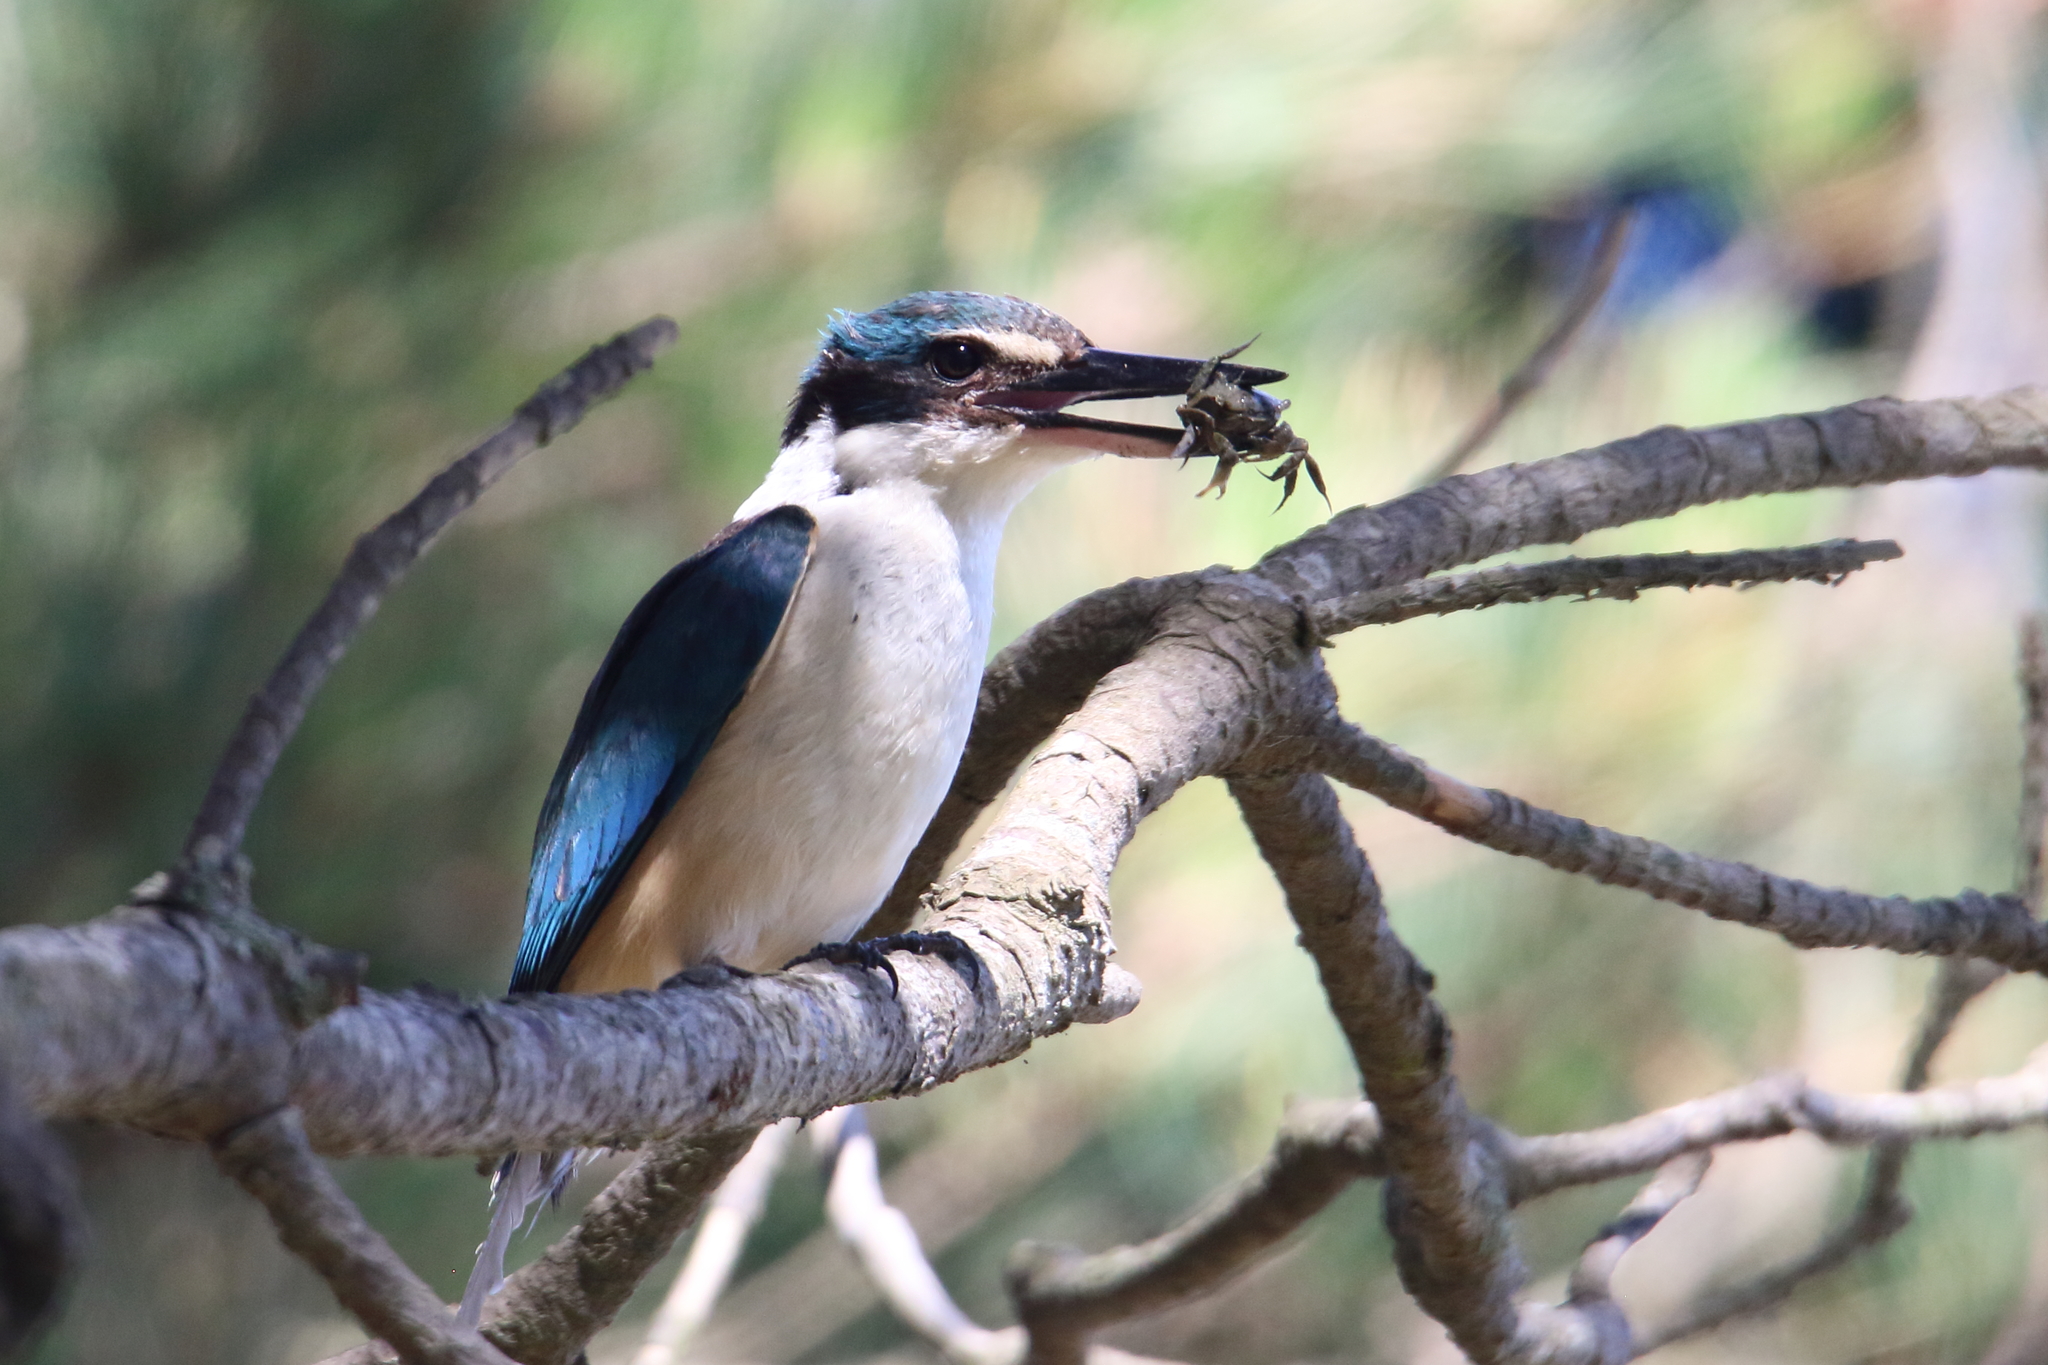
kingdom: Animalia
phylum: Chordata
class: Aves
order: Coraciiformes
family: Alcedinidae
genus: Todiramphus
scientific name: Todiramphus sanctus
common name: Sacred kingfisher
